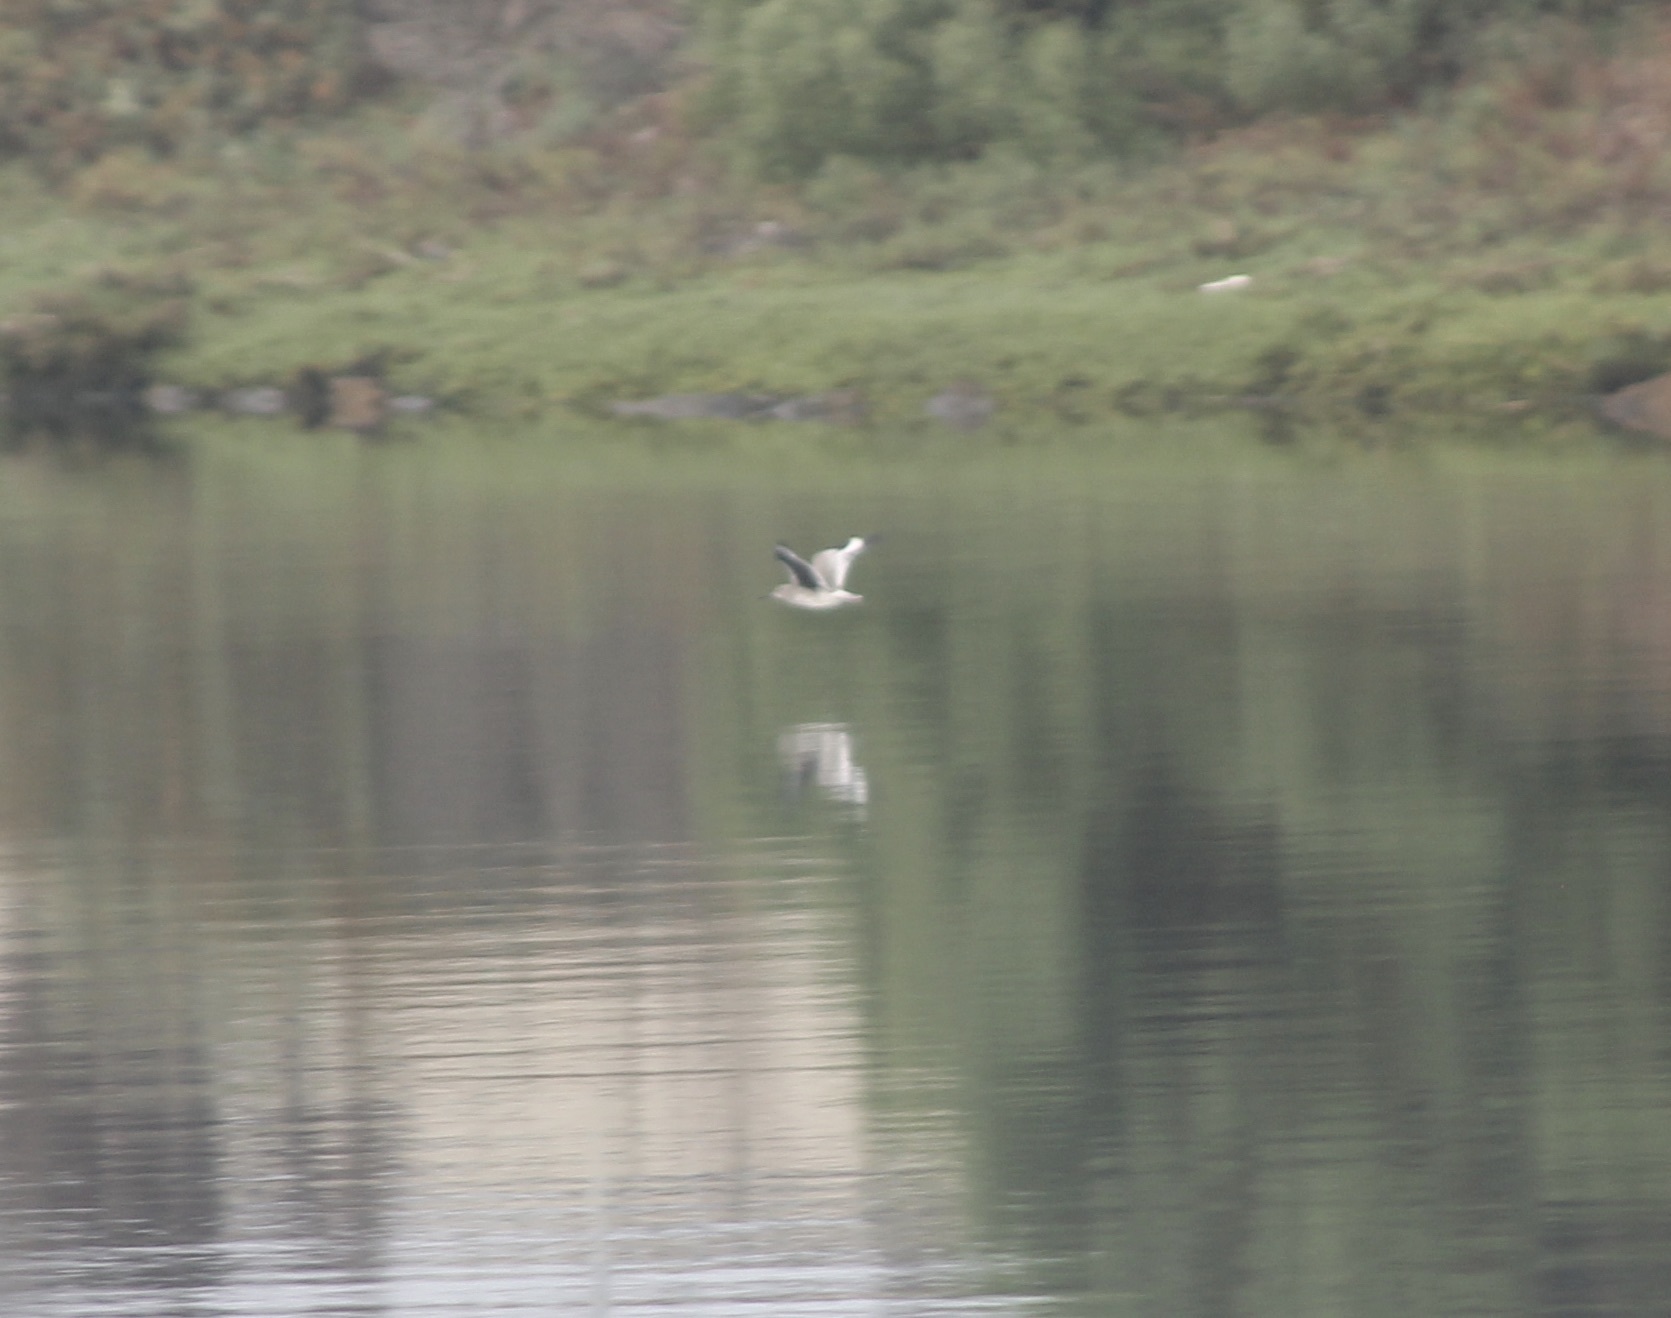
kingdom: Animalia
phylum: Chordata
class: Aves
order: Charadriiformes
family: Scolopacidae
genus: Tringa
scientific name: Tringa semipalmata
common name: Willet
